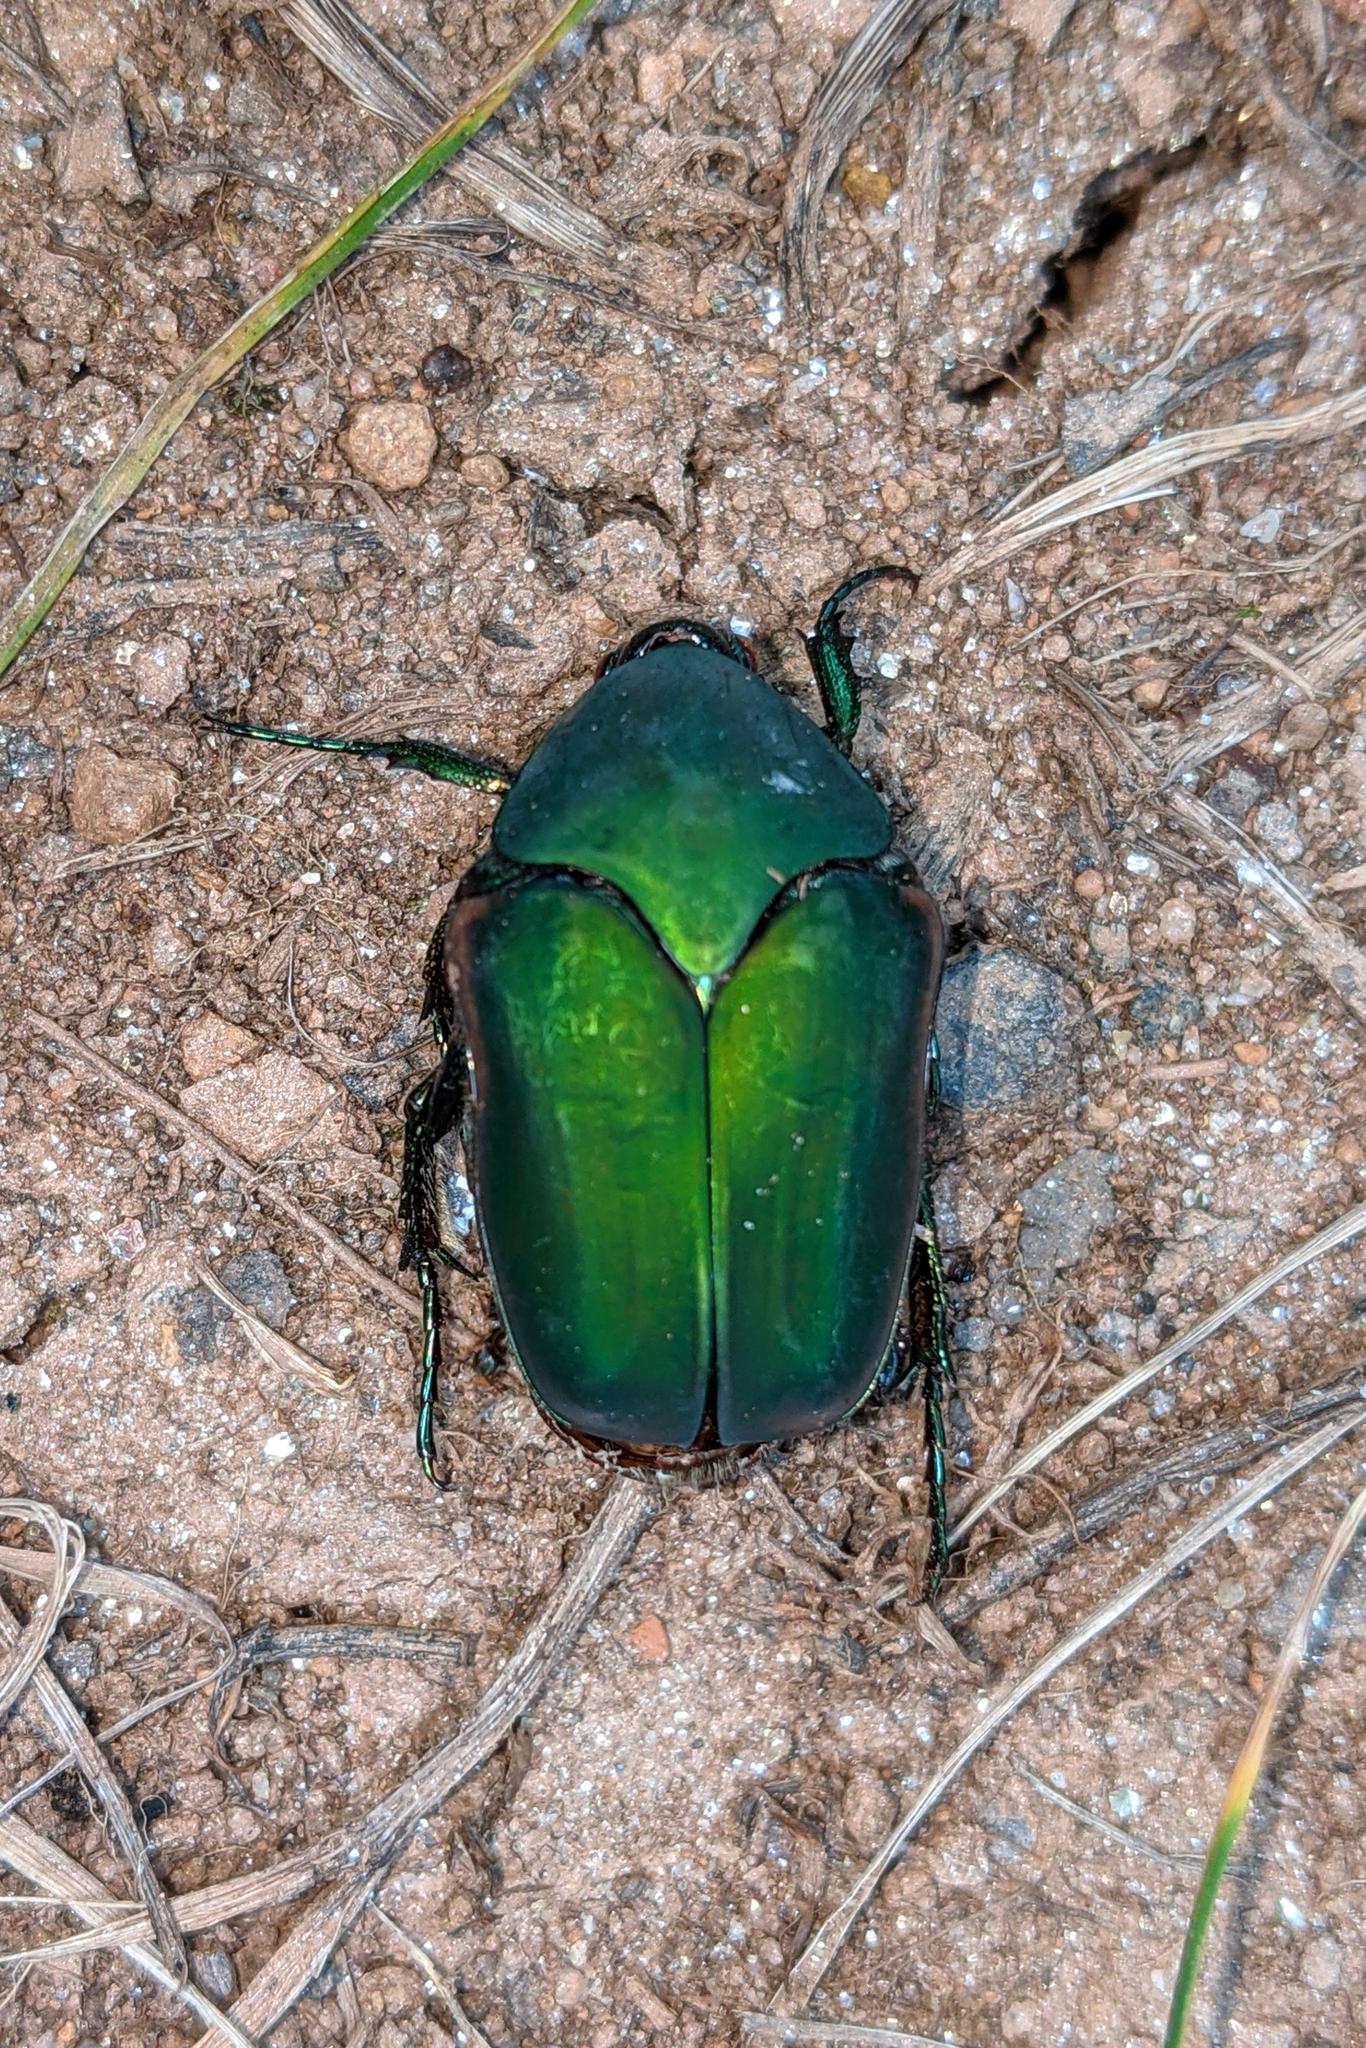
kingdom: Animalia
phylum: Arthropoda
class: Insecta
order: Coleoptera
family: Scarabaeidae
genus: Cotinis
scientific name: Cotinis nitida
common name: Common green june beetle
